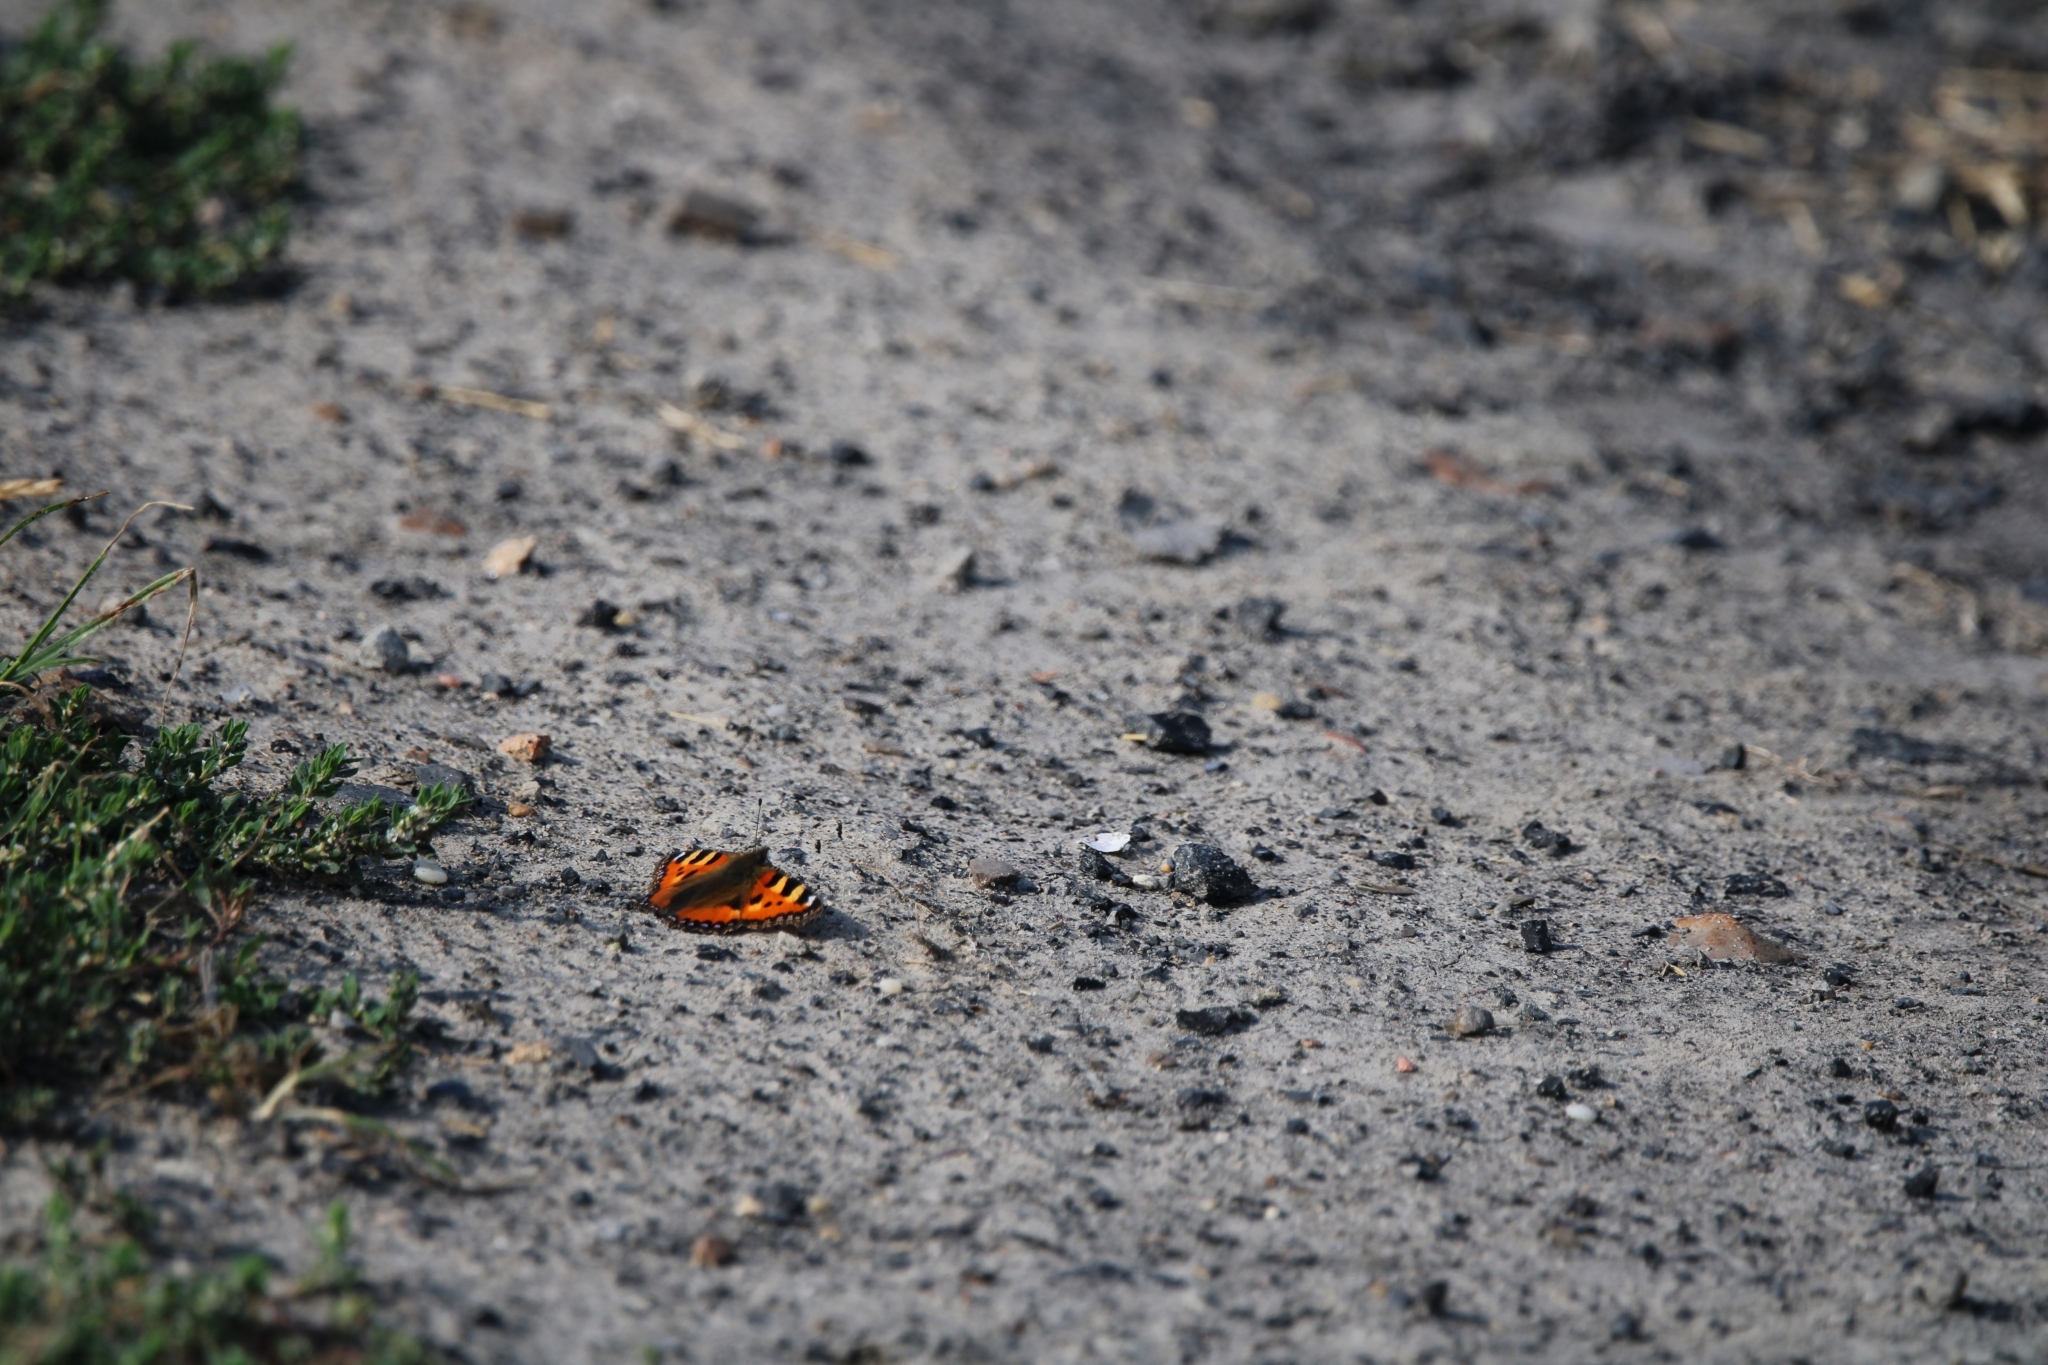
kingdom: Animalia
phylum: Arthropoda
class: Insecta
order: Lepidoptera
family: Nymphalidae
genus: Aglais
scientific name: Aglais urticae
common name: Small tortoiseshell
